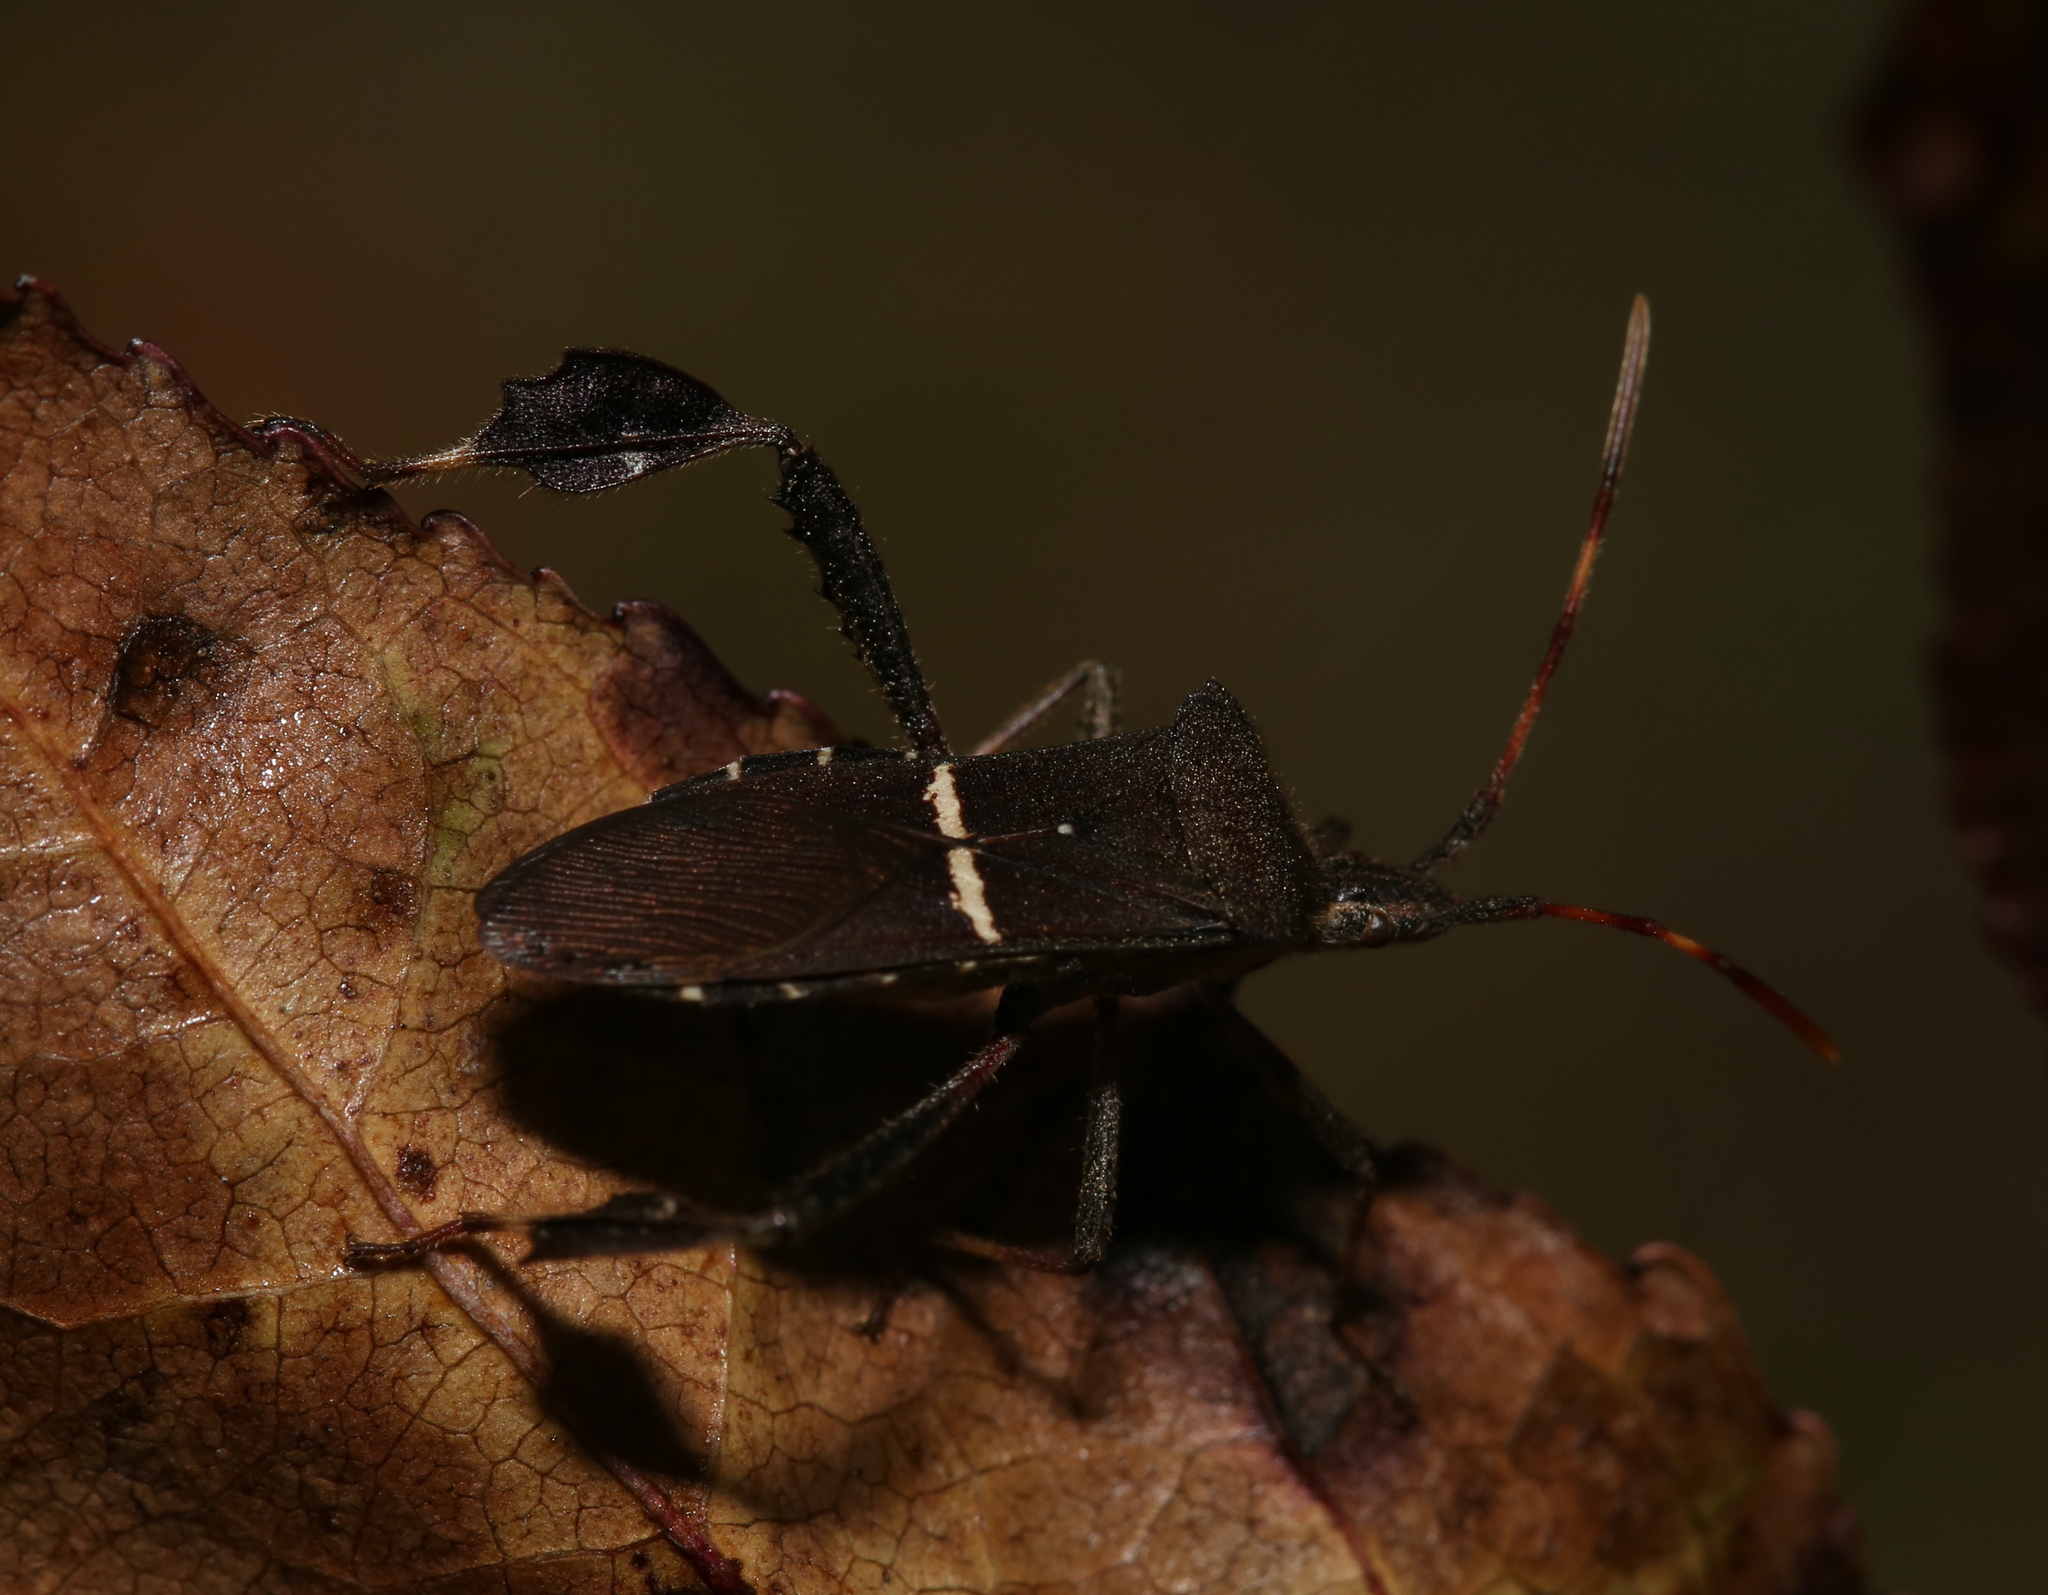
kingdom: Animalia
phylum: Arthropoda
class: Insecta
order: Hemiptera
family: Coreidae
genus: Leptoglossus
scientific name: Leptoglossus phyllopus
